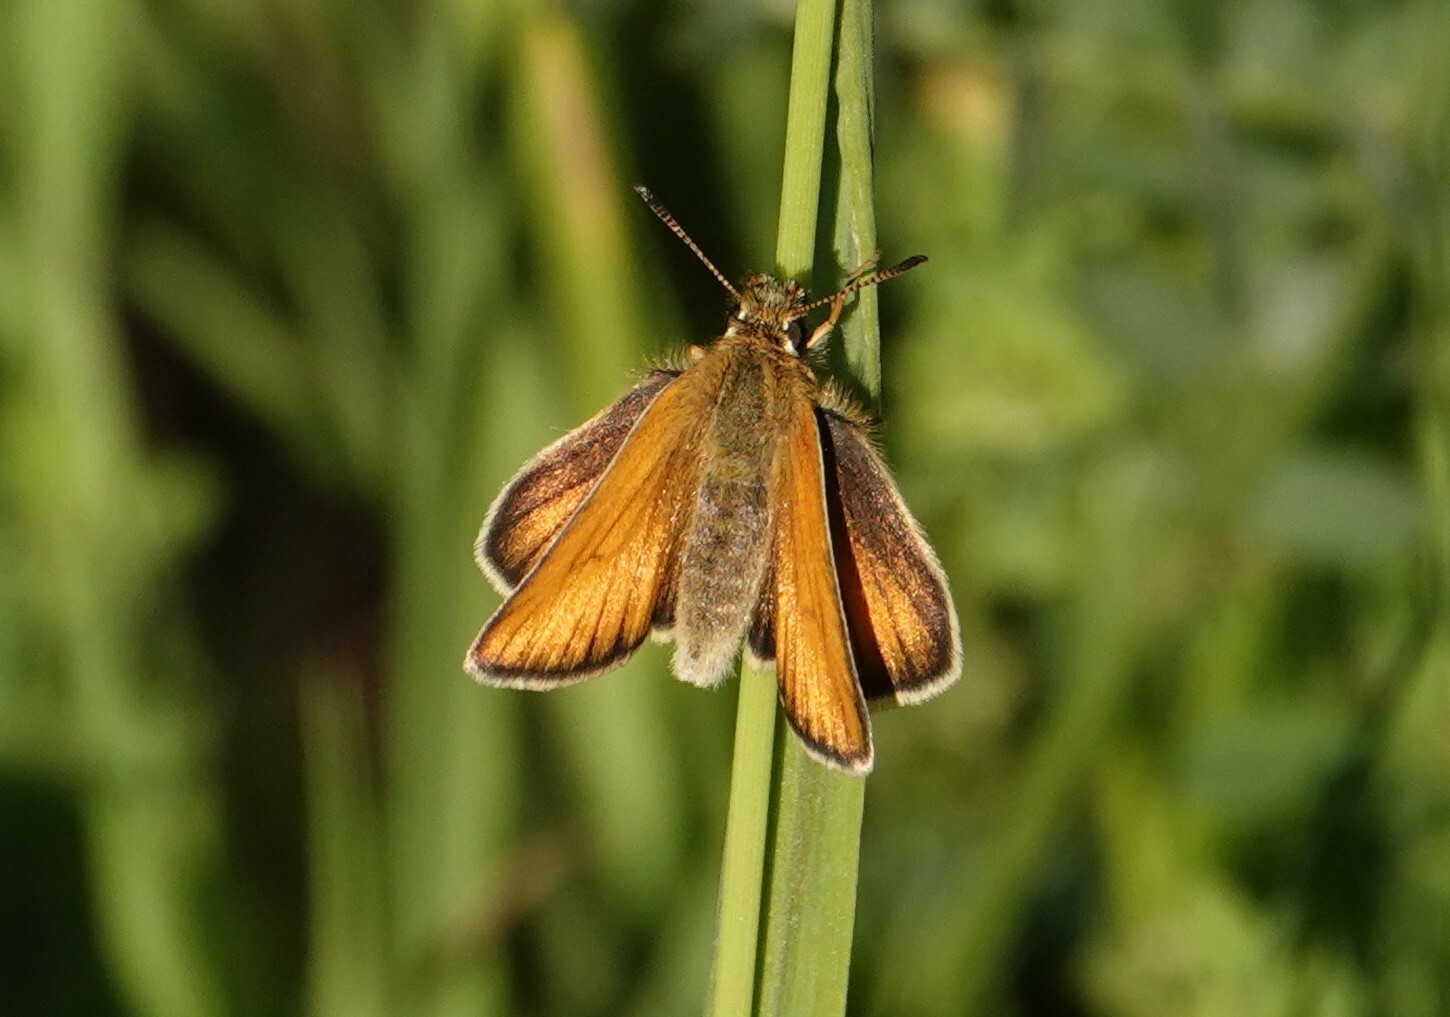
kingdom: Animalia
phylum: Arthropoda
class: Insecta
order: Lepidoptera
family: Hesperiidae
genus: Thymelicus
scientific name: Thymelicus lineola
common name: Essex skipper
